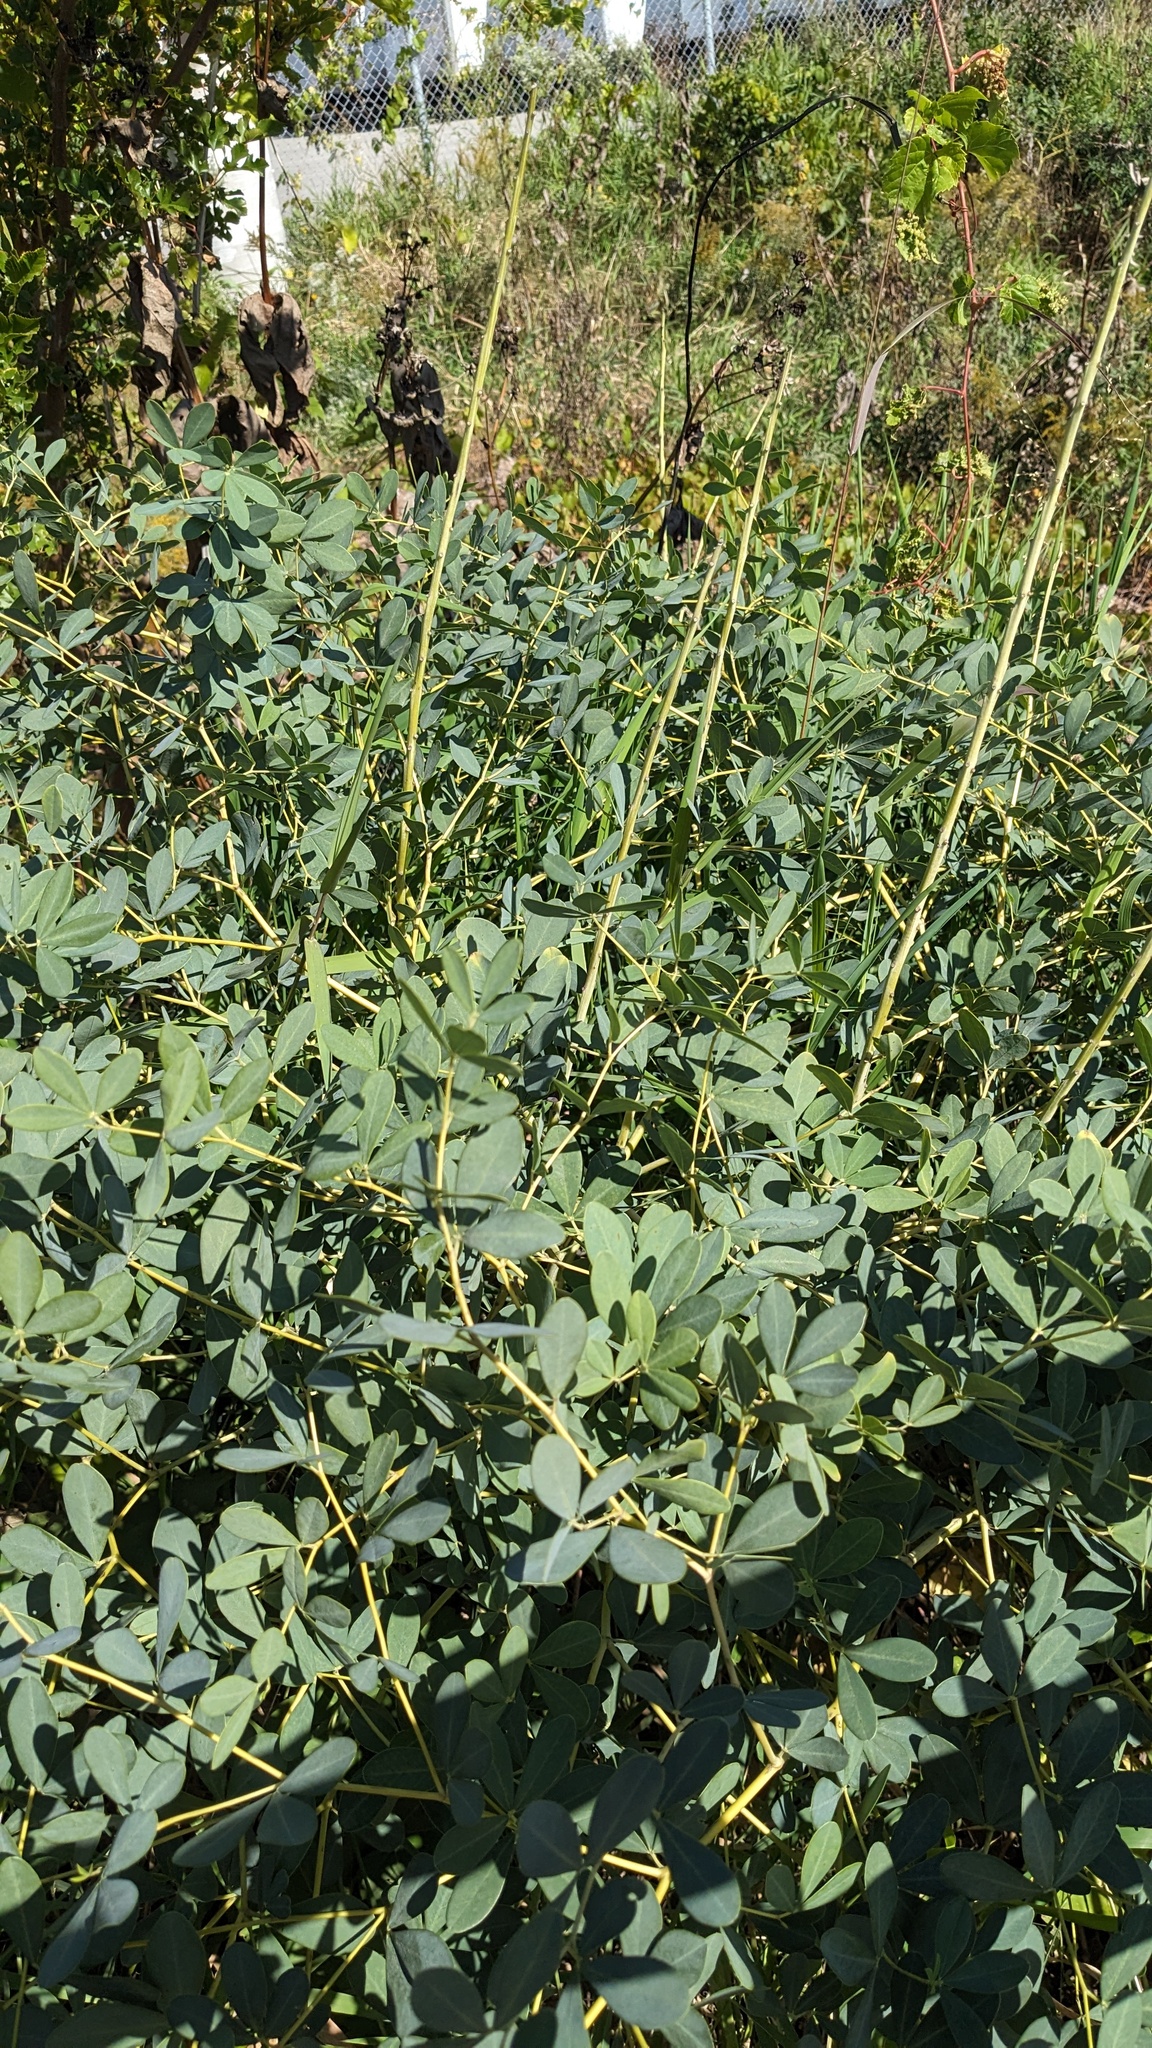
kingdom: Plantae
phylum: Tracheophyta
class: Magnoliopsida
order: Fabales
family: Fabaceae
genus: Baptisia
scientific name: Baptisia alba
